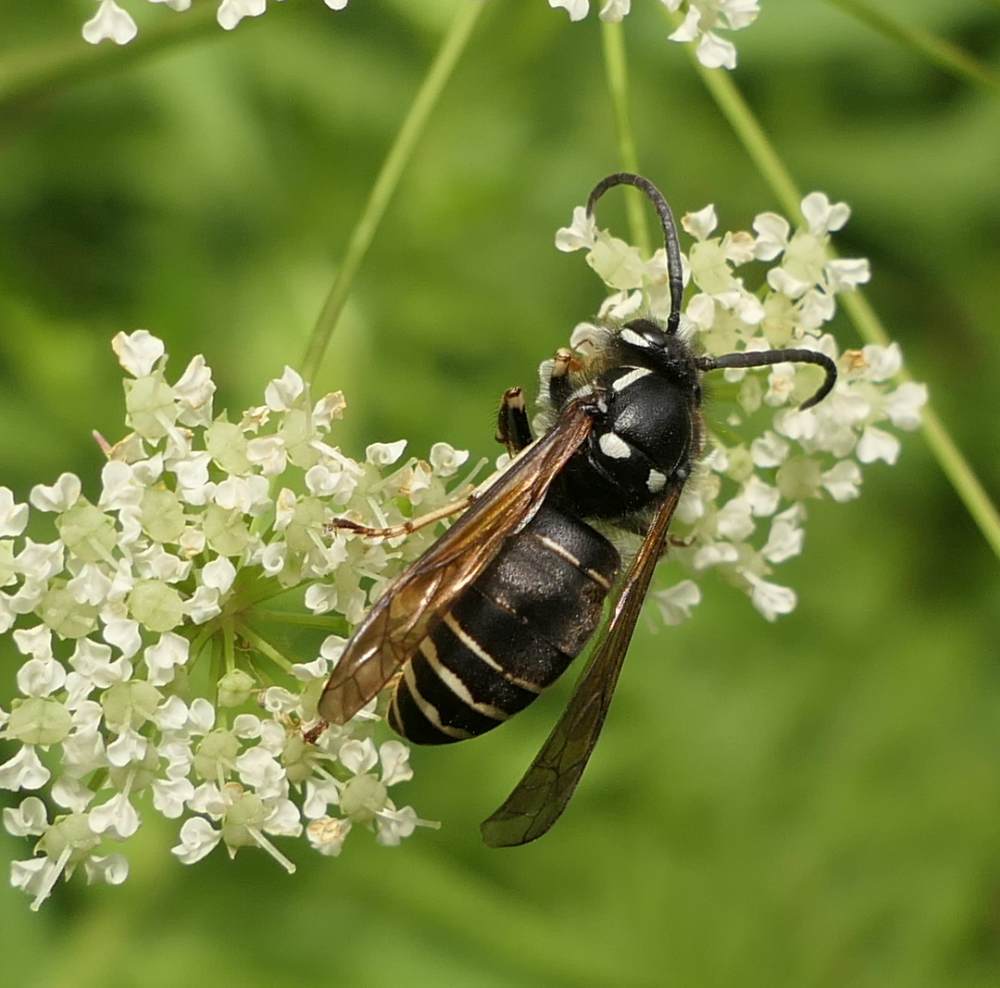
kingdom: Animalia
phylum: Arthropoda
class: Insecta
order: Hymenoptera
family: Vespidae
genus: Dolichovespula
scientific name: Dolichovespula adulterina
